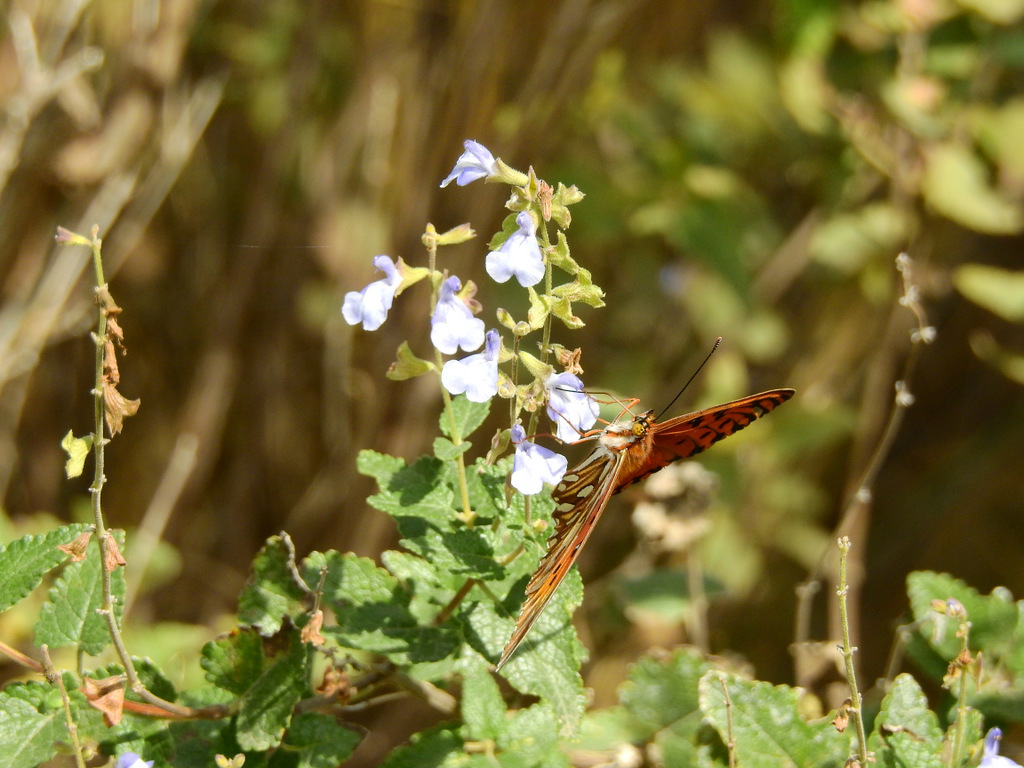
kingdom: Animalia
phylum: Arthropoda
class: Insecta
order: Lepidoptera
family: Nymphalidae
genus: Dione
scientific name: Dione vanillae
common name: Gulf fritillary
